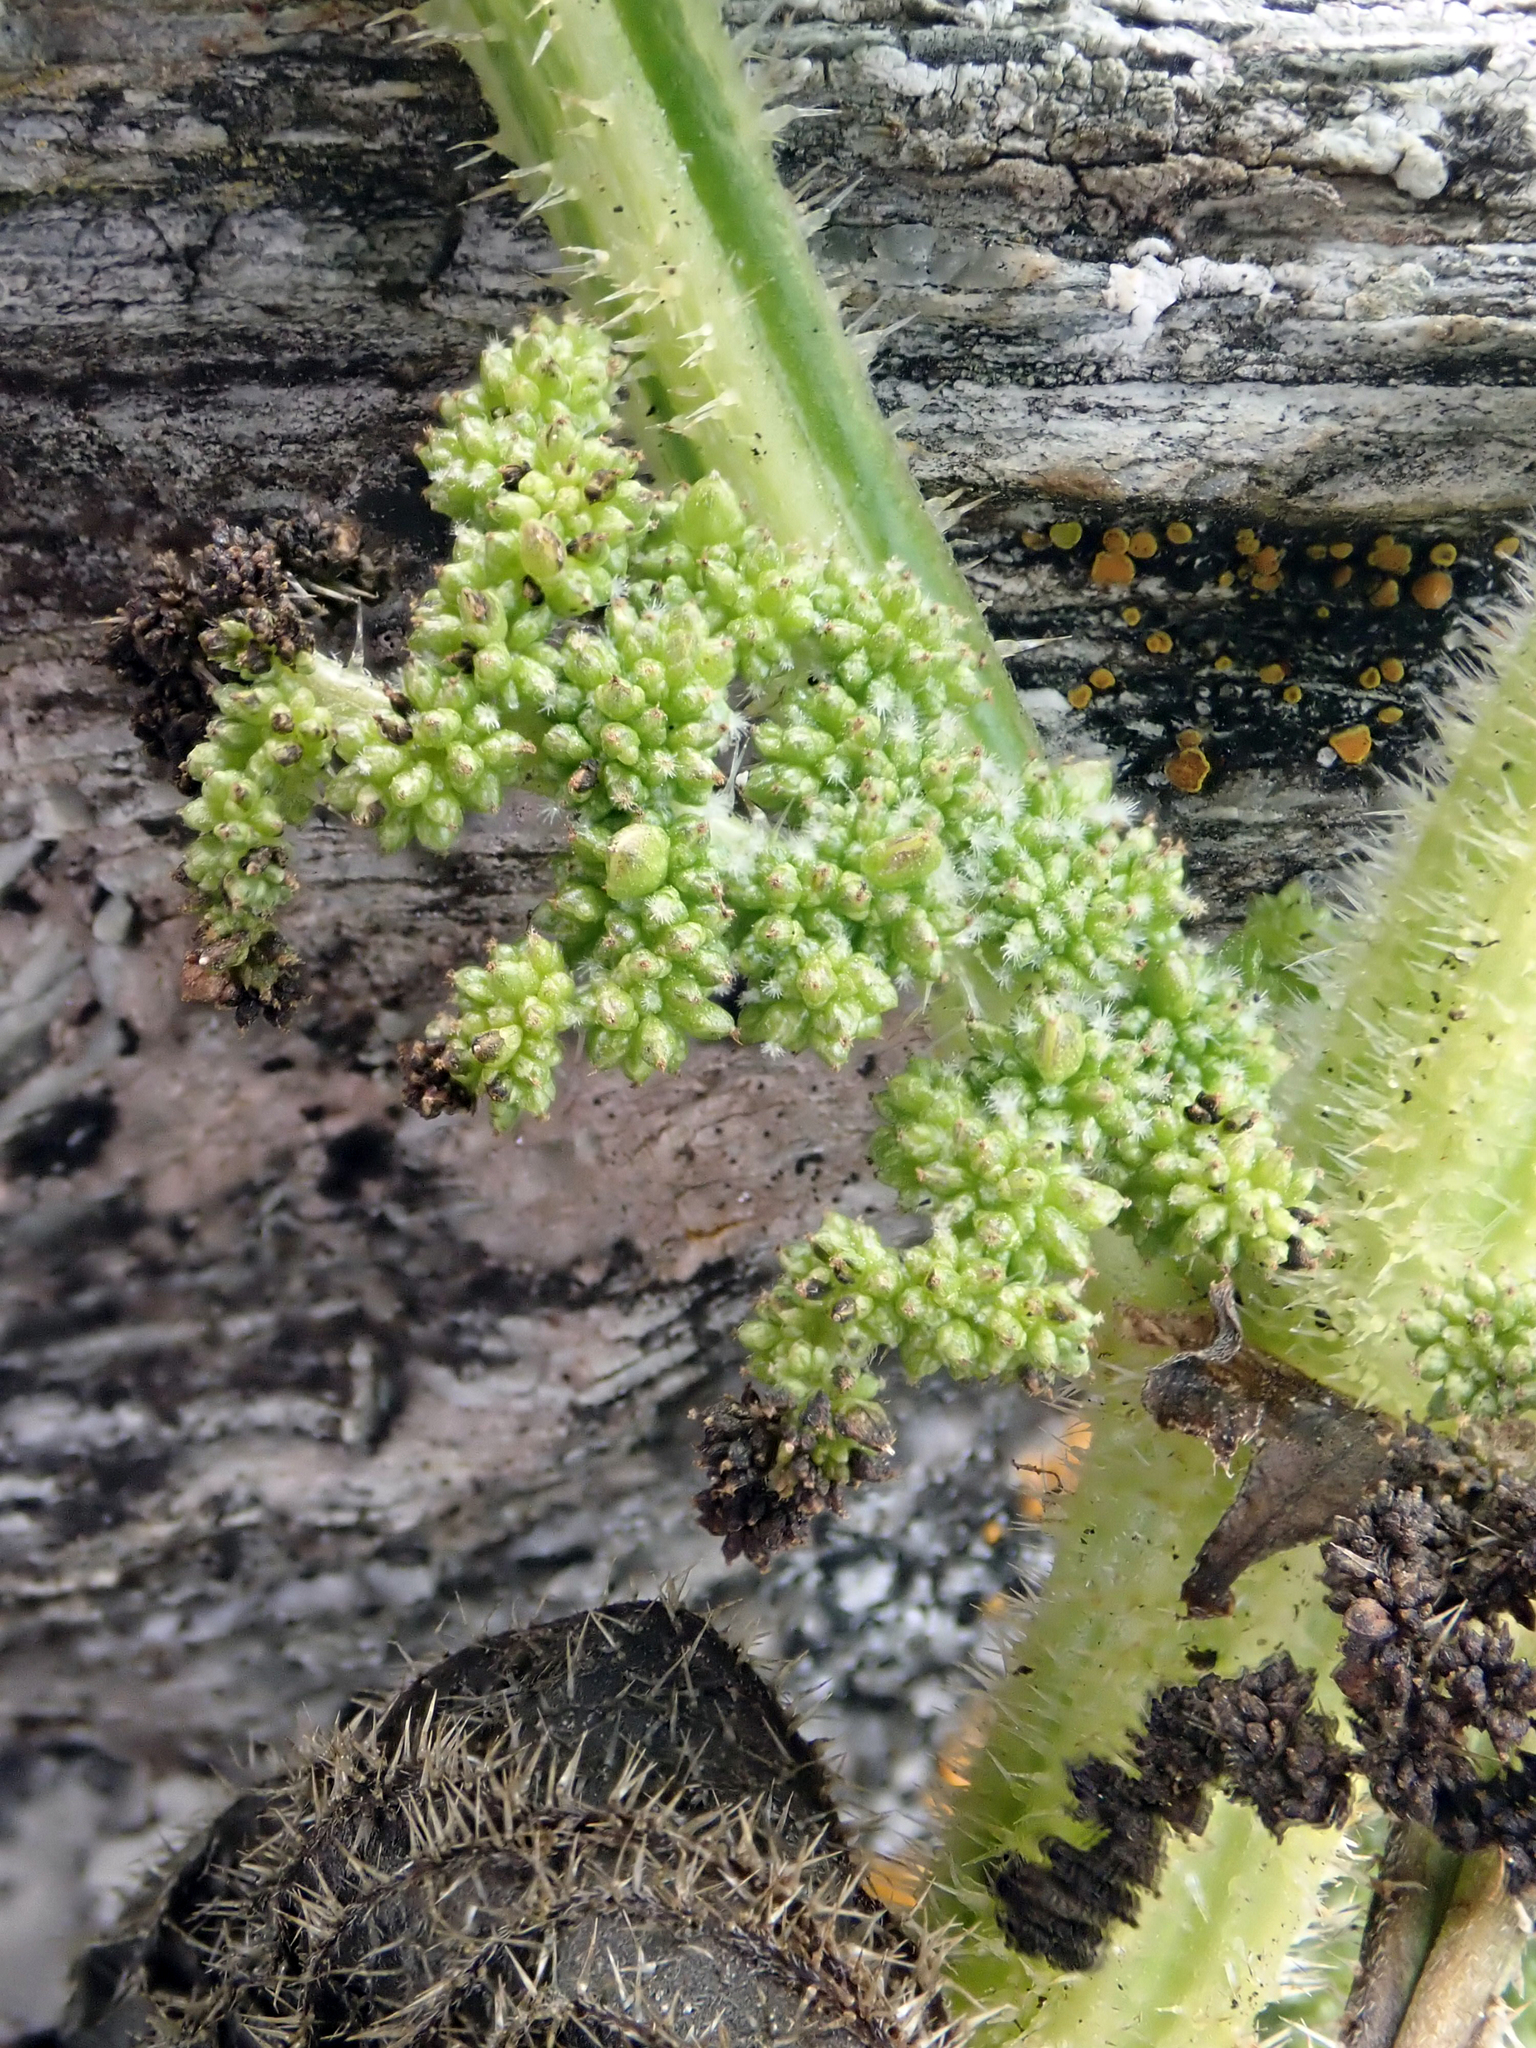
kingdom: Plantae
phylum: Tracheophyta
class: Magnoliopsida
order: Rosales
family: Urticaceae
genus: Urtica
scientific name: Urtica australis
